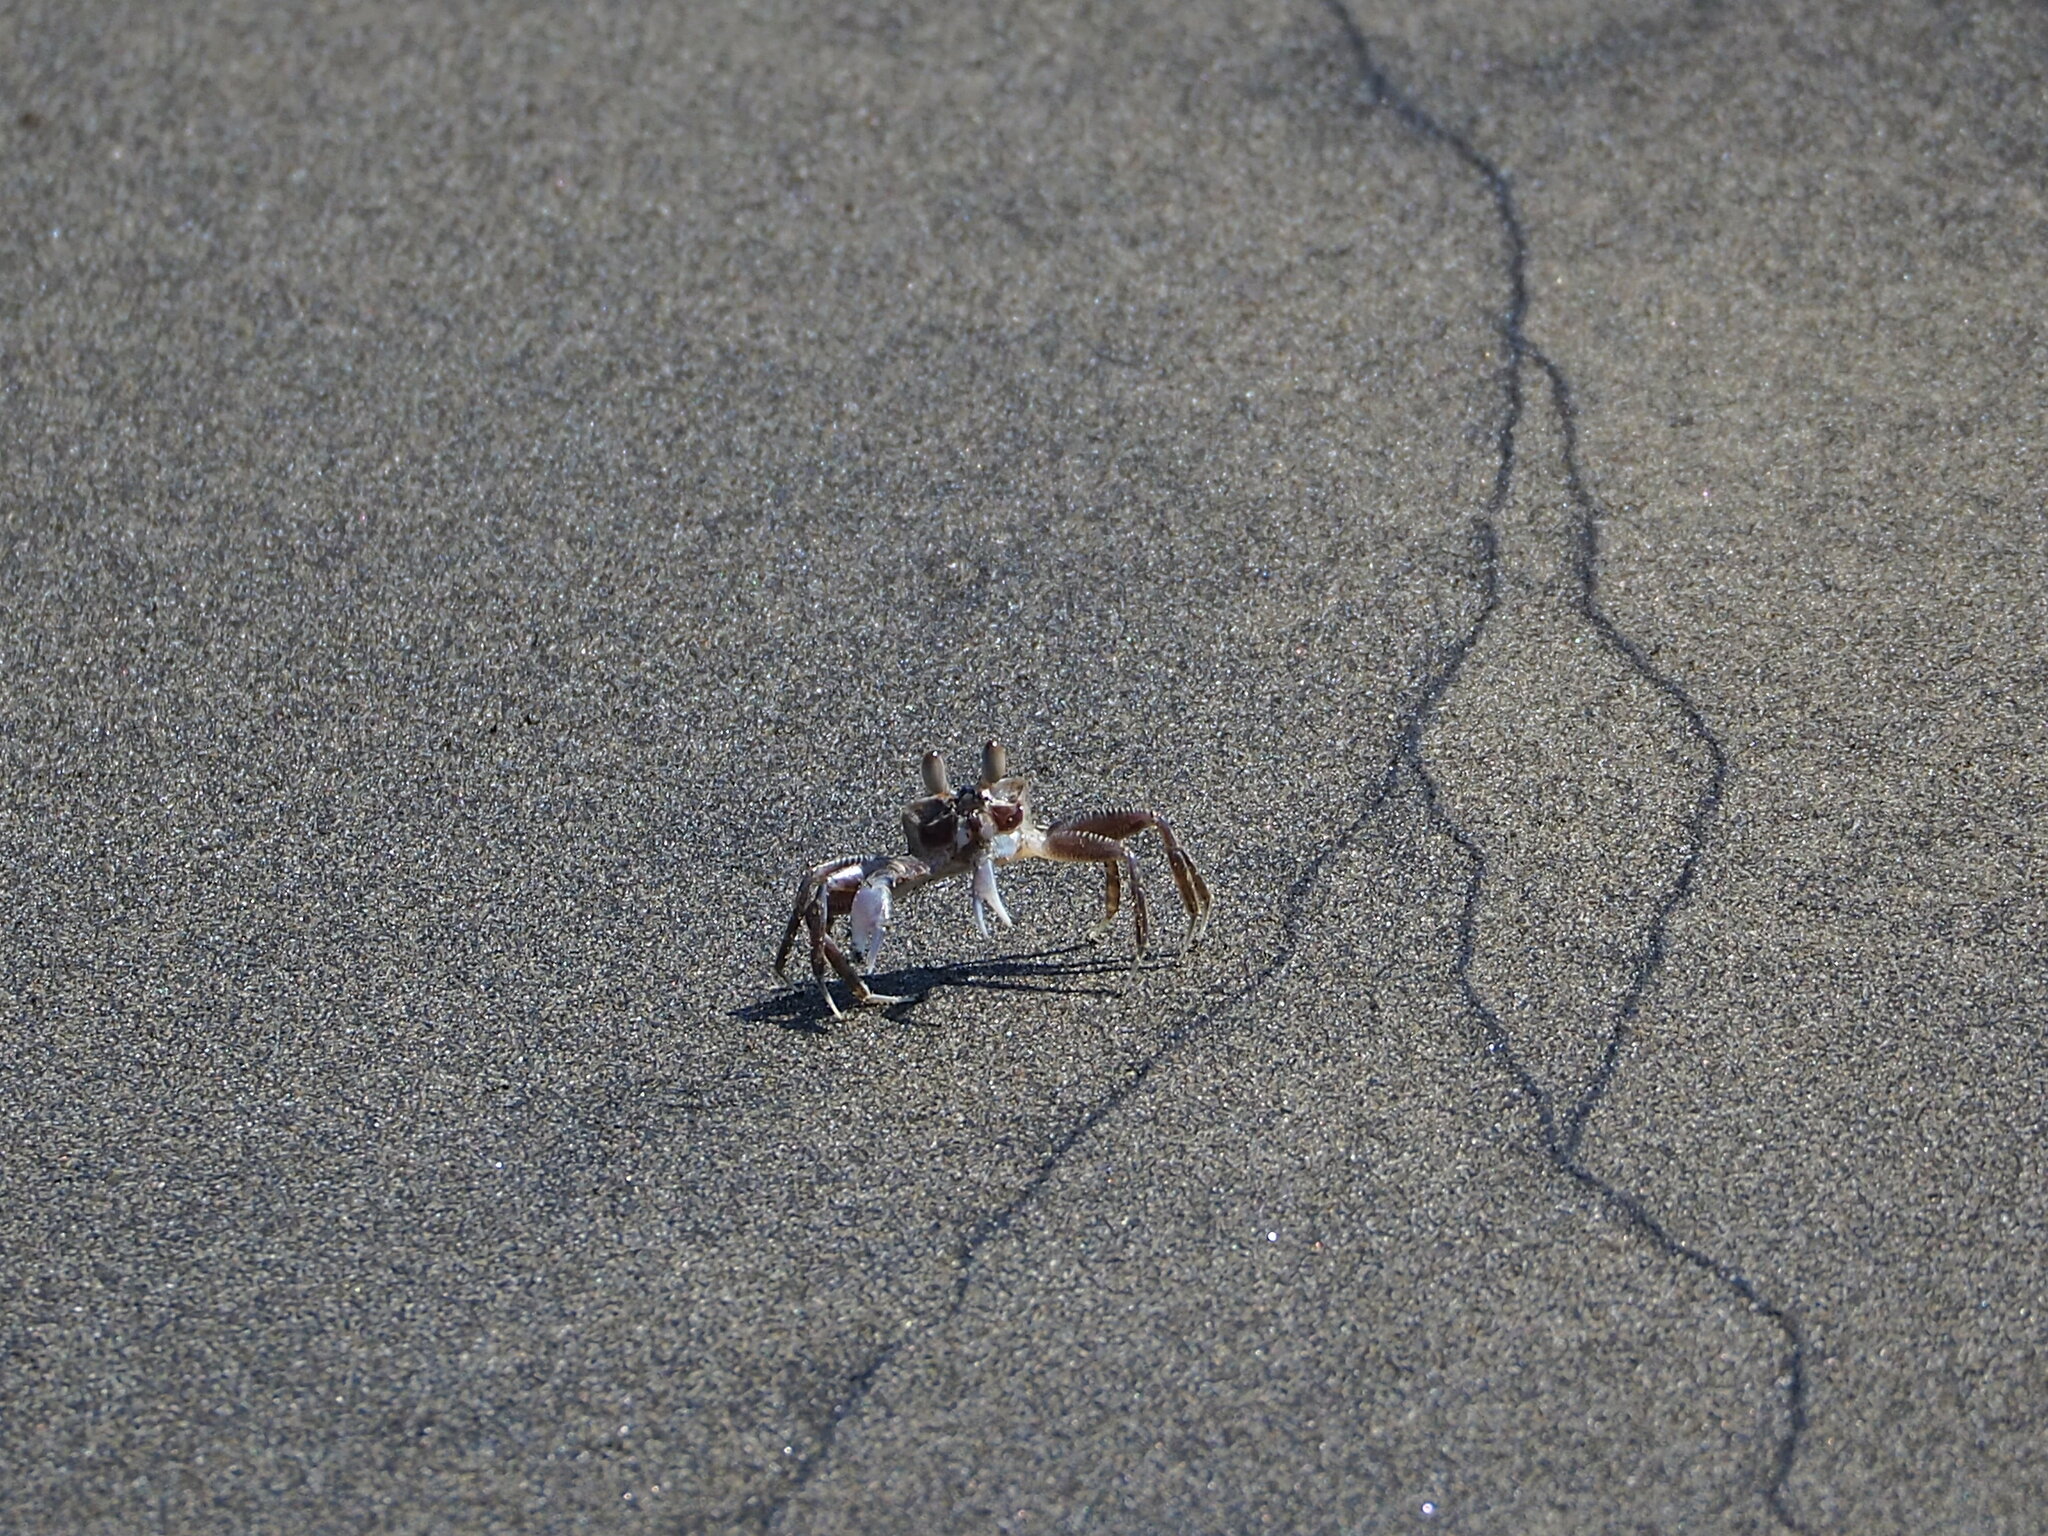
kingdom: Animalia
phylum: Arthropoda
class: Malacostraca
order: Decapoda
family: Ocypodidae
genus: Ocypode
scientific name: Ocypode ceratophthalmus
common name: Indo-pacific ghost crab
